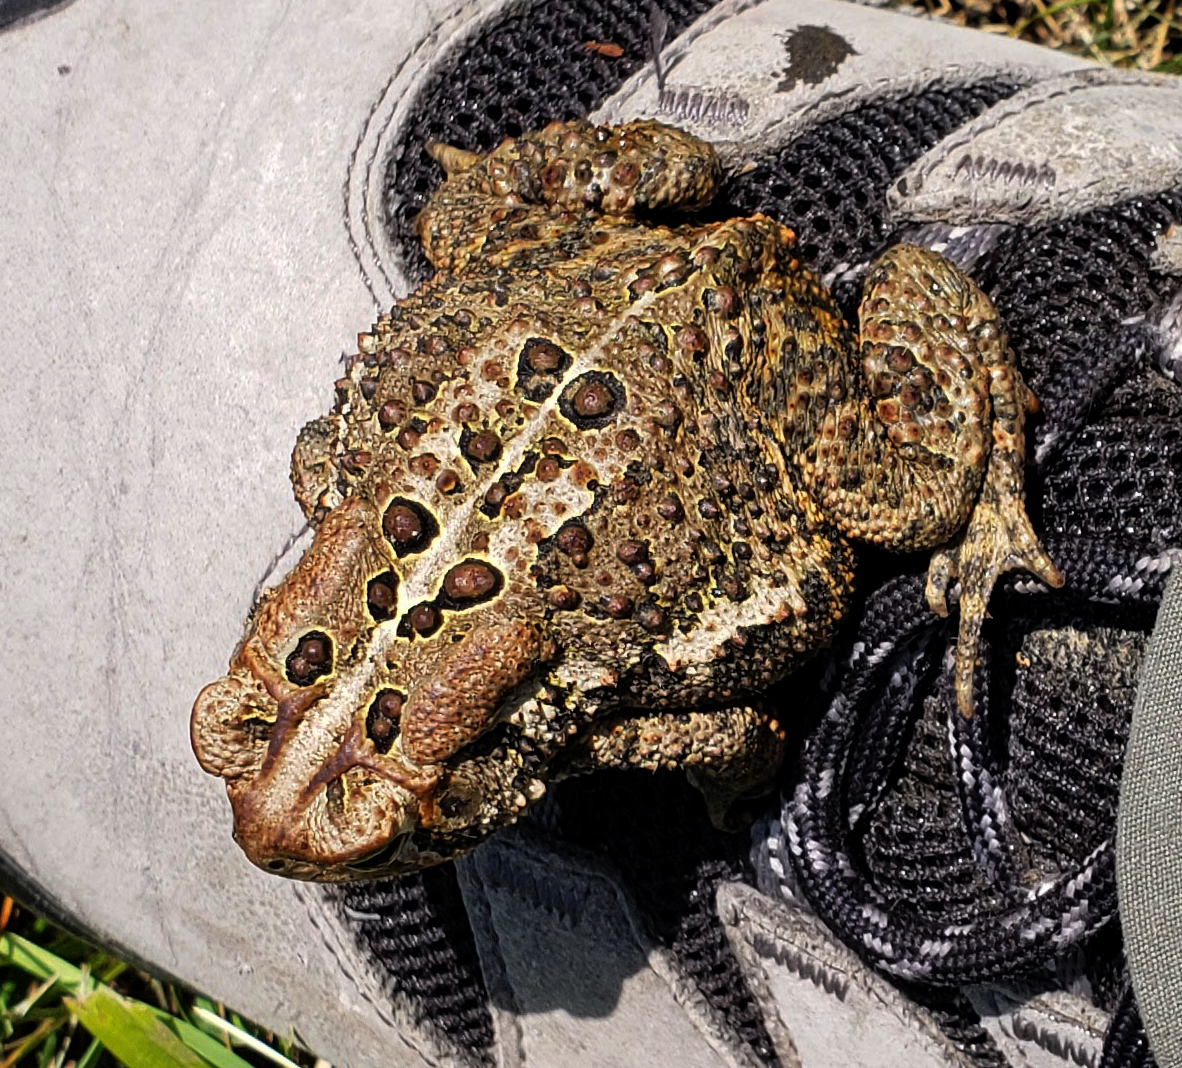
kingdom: Animalia
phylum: Chordata
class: Amphibia
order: Anura
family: Bufonidae
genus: Anaxyrus
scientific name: Anaxyrus americanus
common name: American toad
